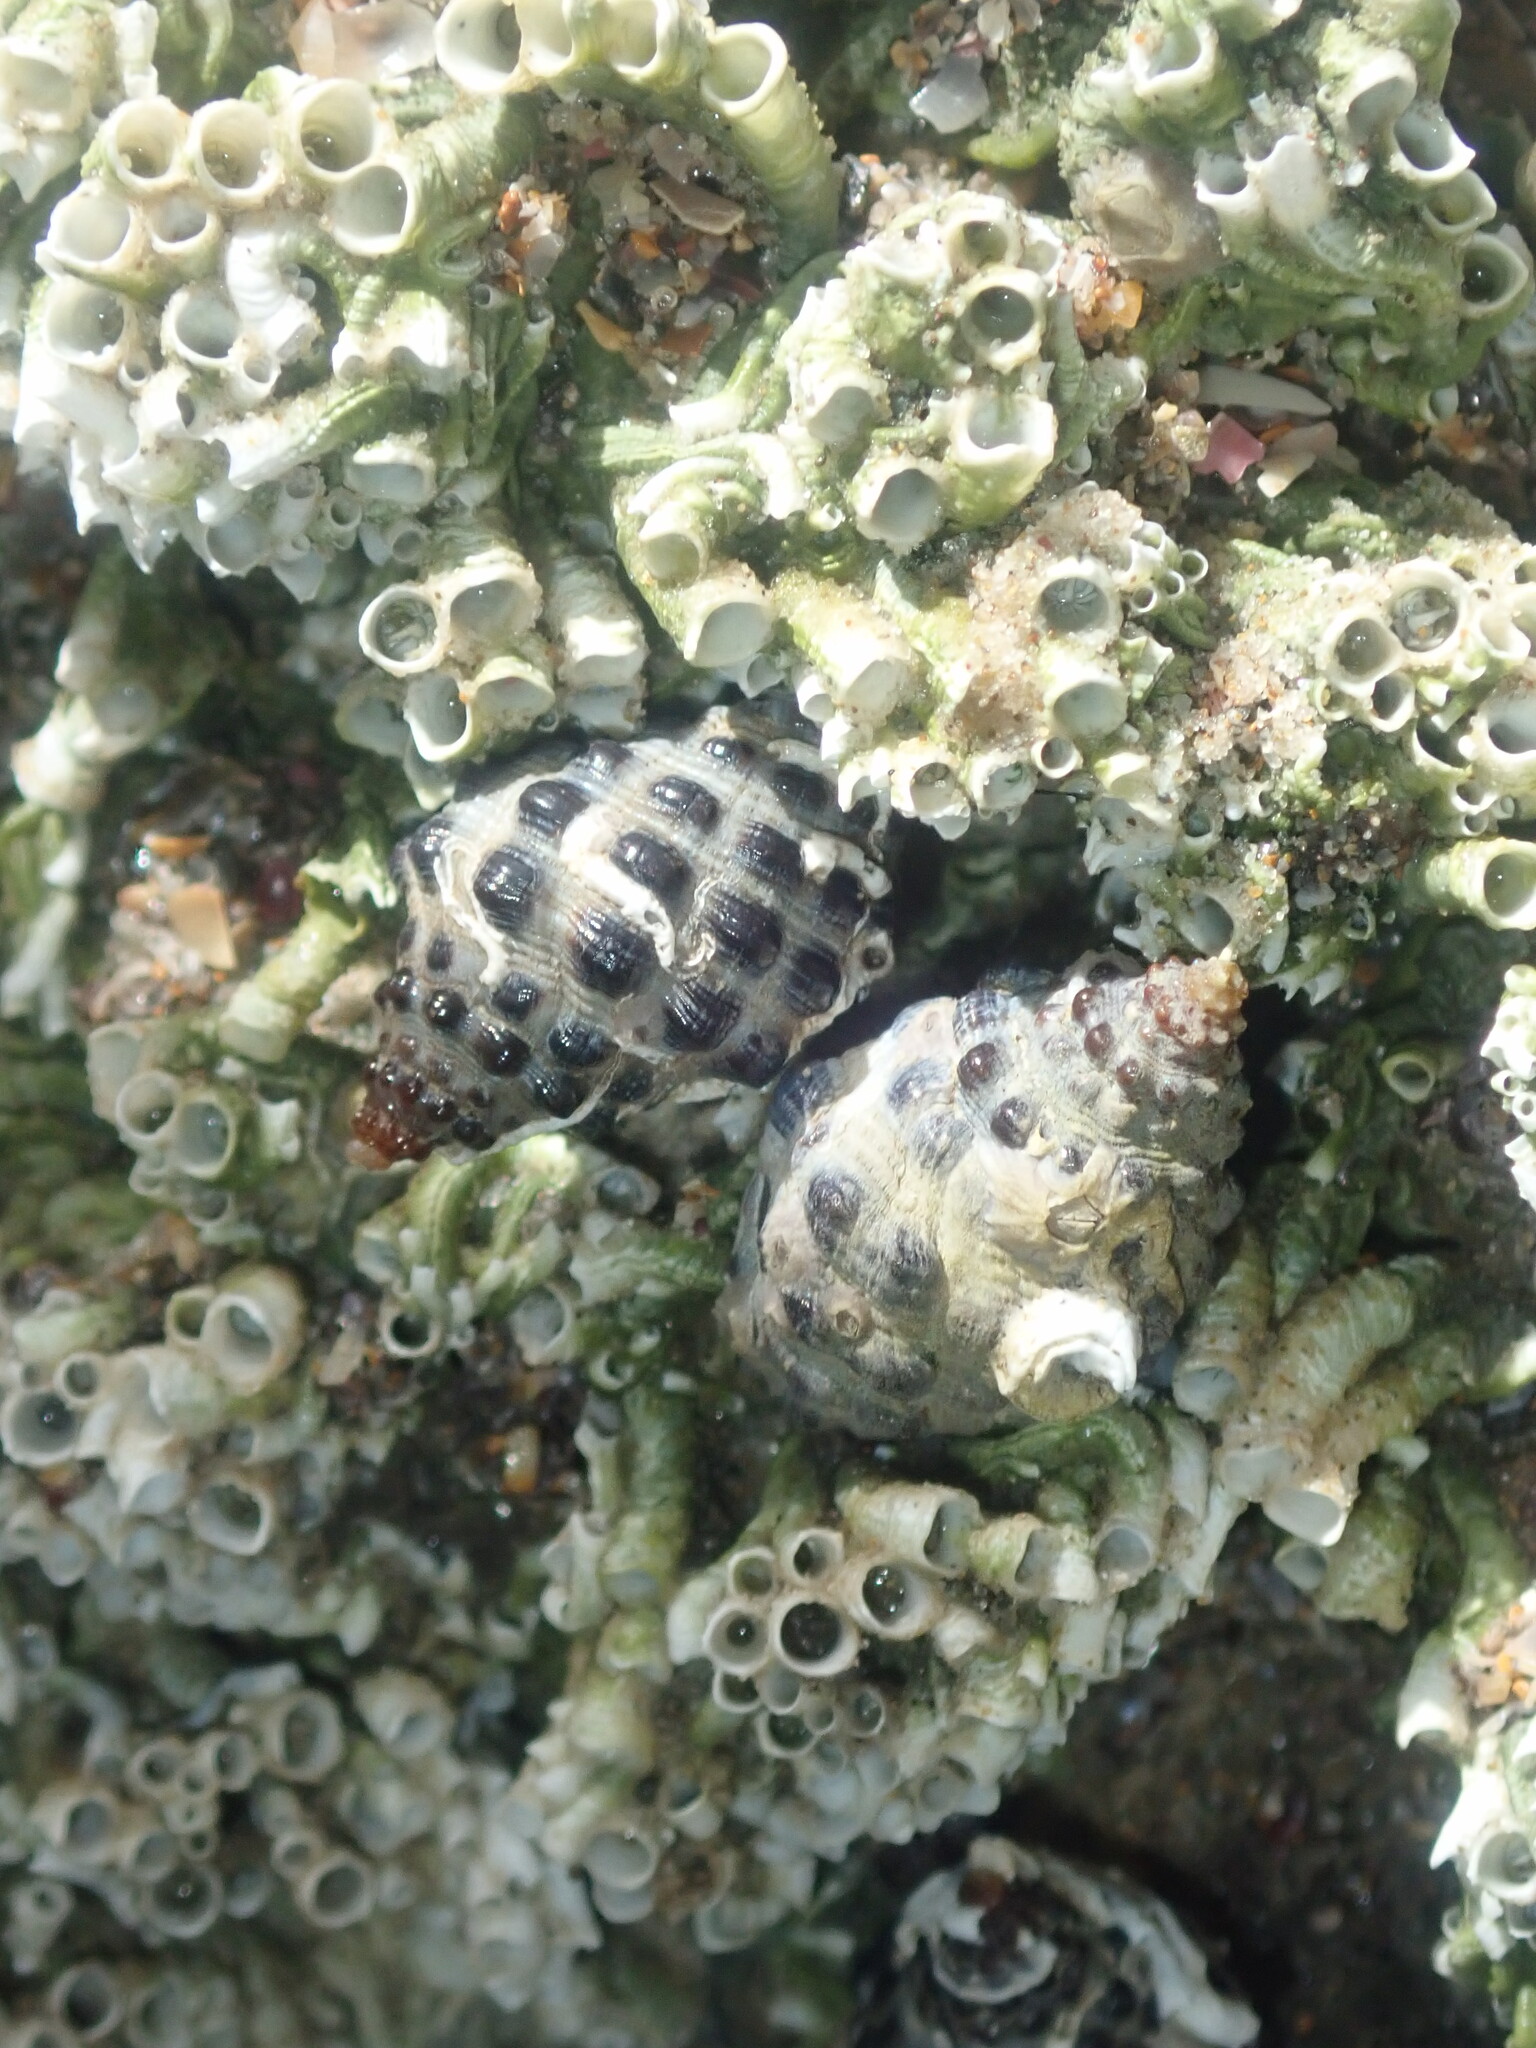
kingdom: Animalia
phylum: Mollusca
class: Gastropoda
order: Neogastropoda
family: Muricidae
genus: Tenguella
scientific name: Tenguella marginalba
